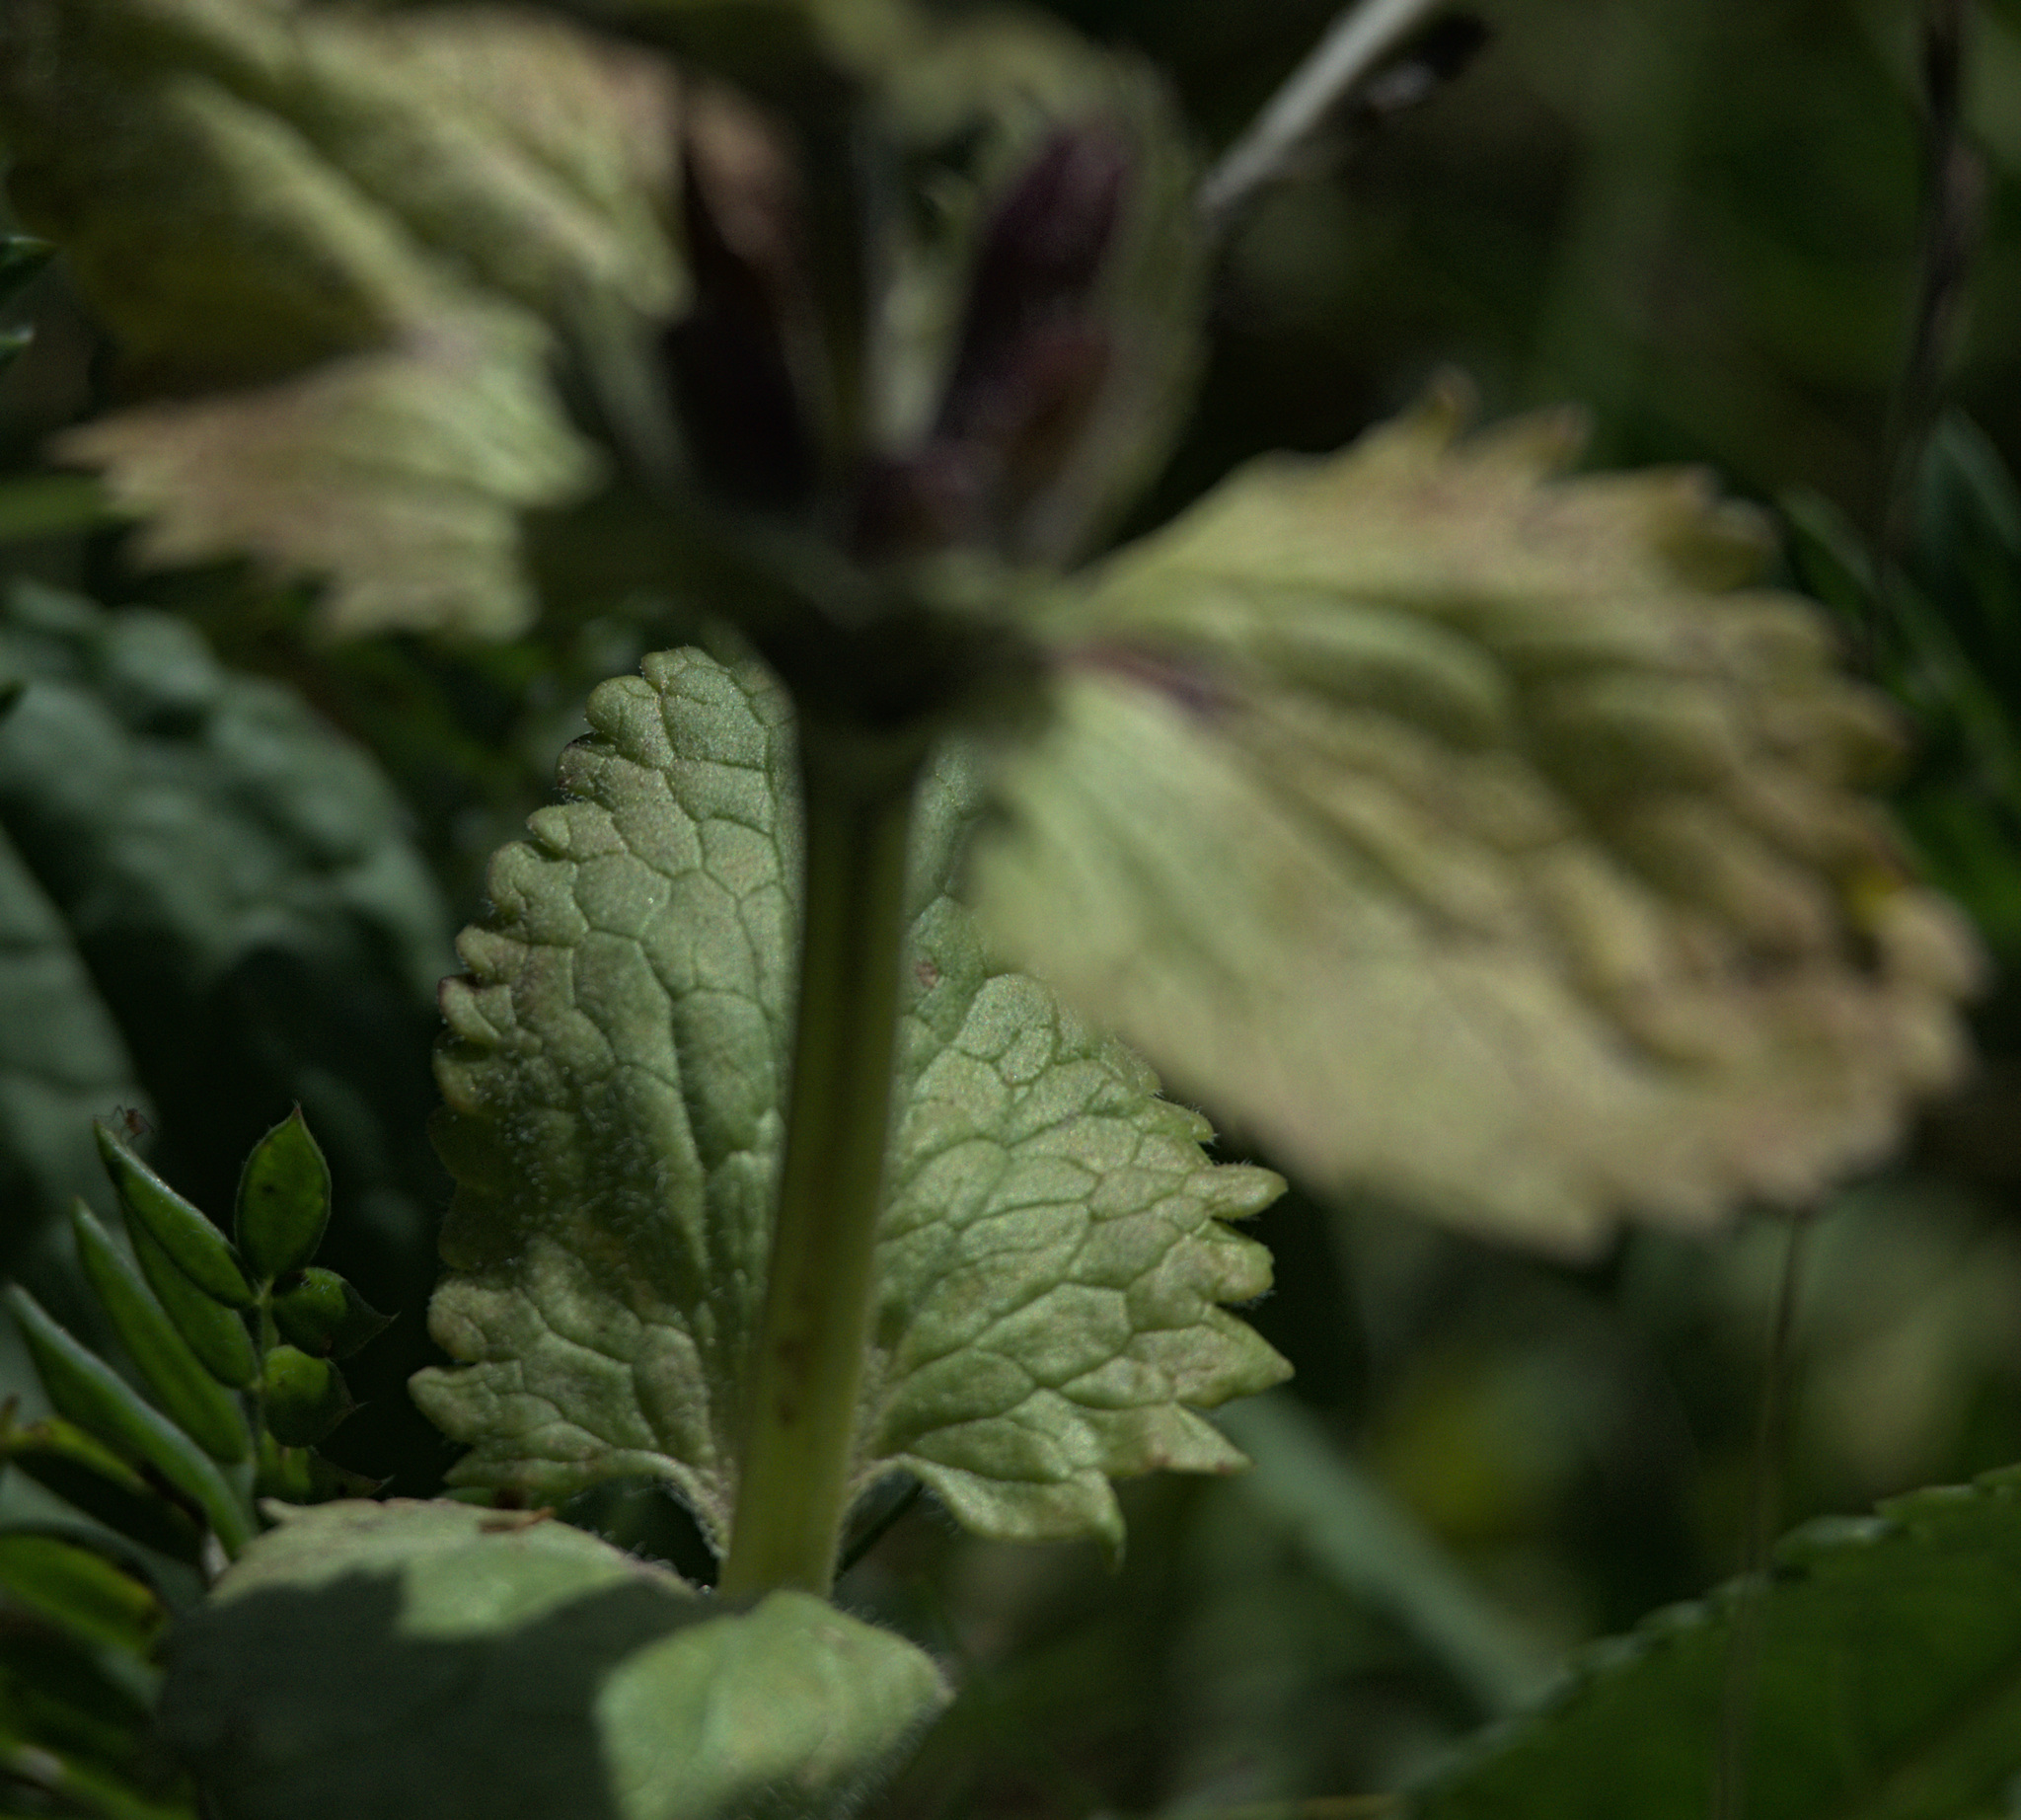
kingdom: Plantae
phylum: Tracheophyta
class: Magnoliopsida
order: Lamiales
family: Lamiaceae
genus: Dracocephalum
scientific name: Dracocephalum grandiflorum
